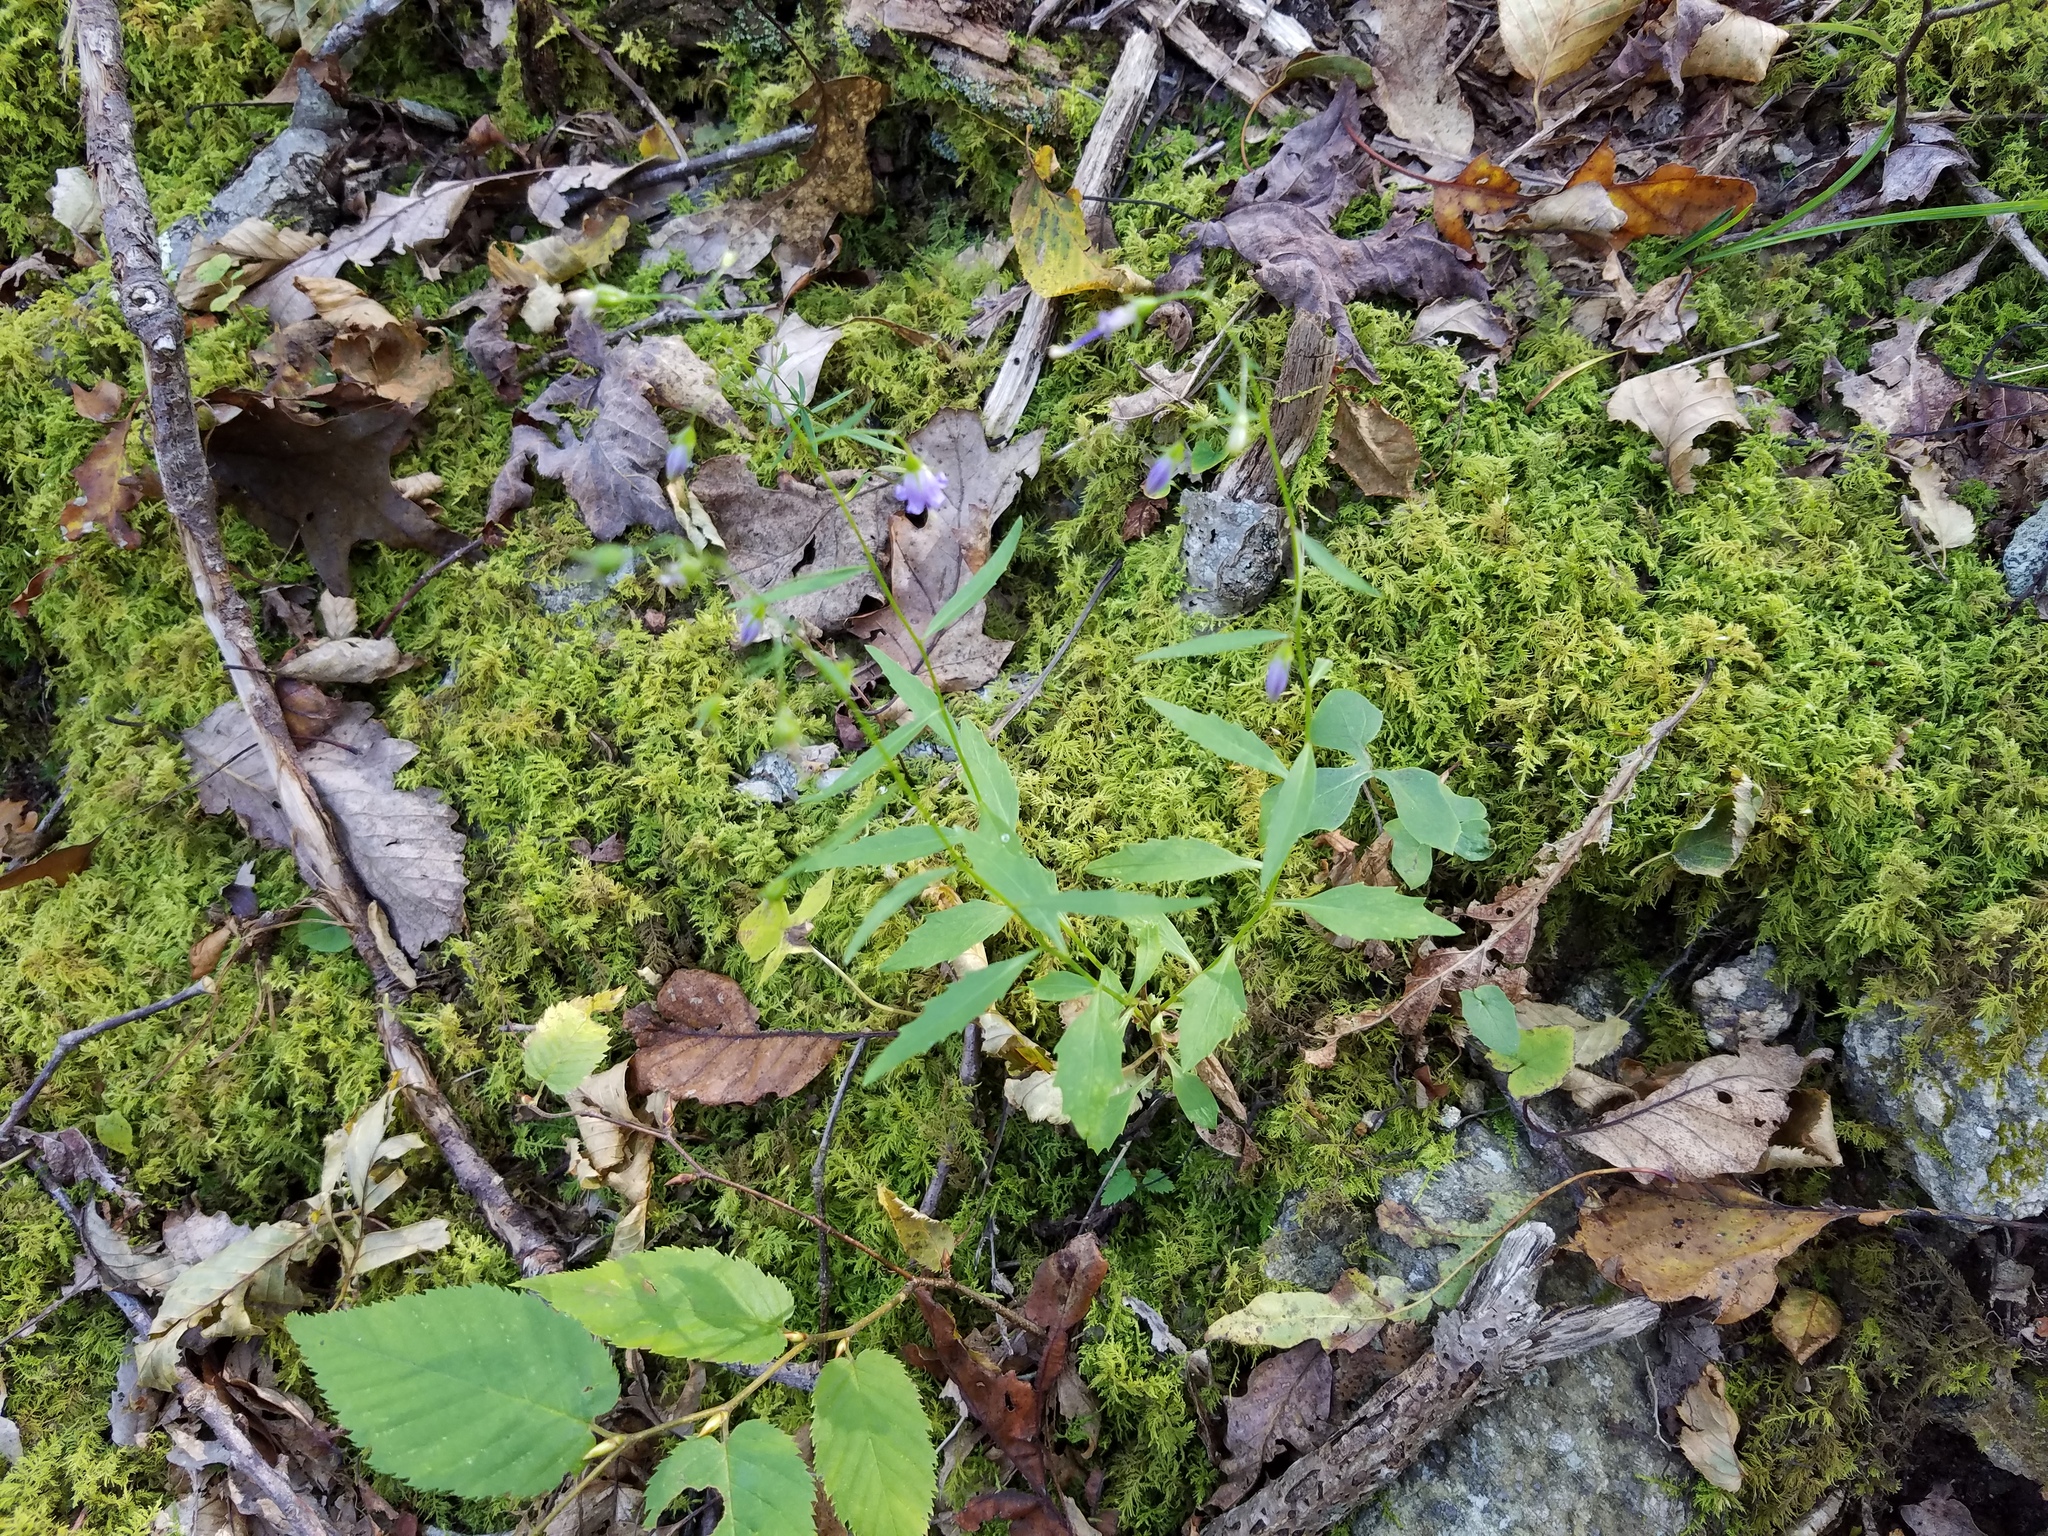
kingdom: Plantae
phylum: Tracheophyta
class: Magnoliopsida
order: Asterales
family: Campanulaceae
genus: Campanula
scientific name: Campanula divaricata
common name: Appalachian bellflower
